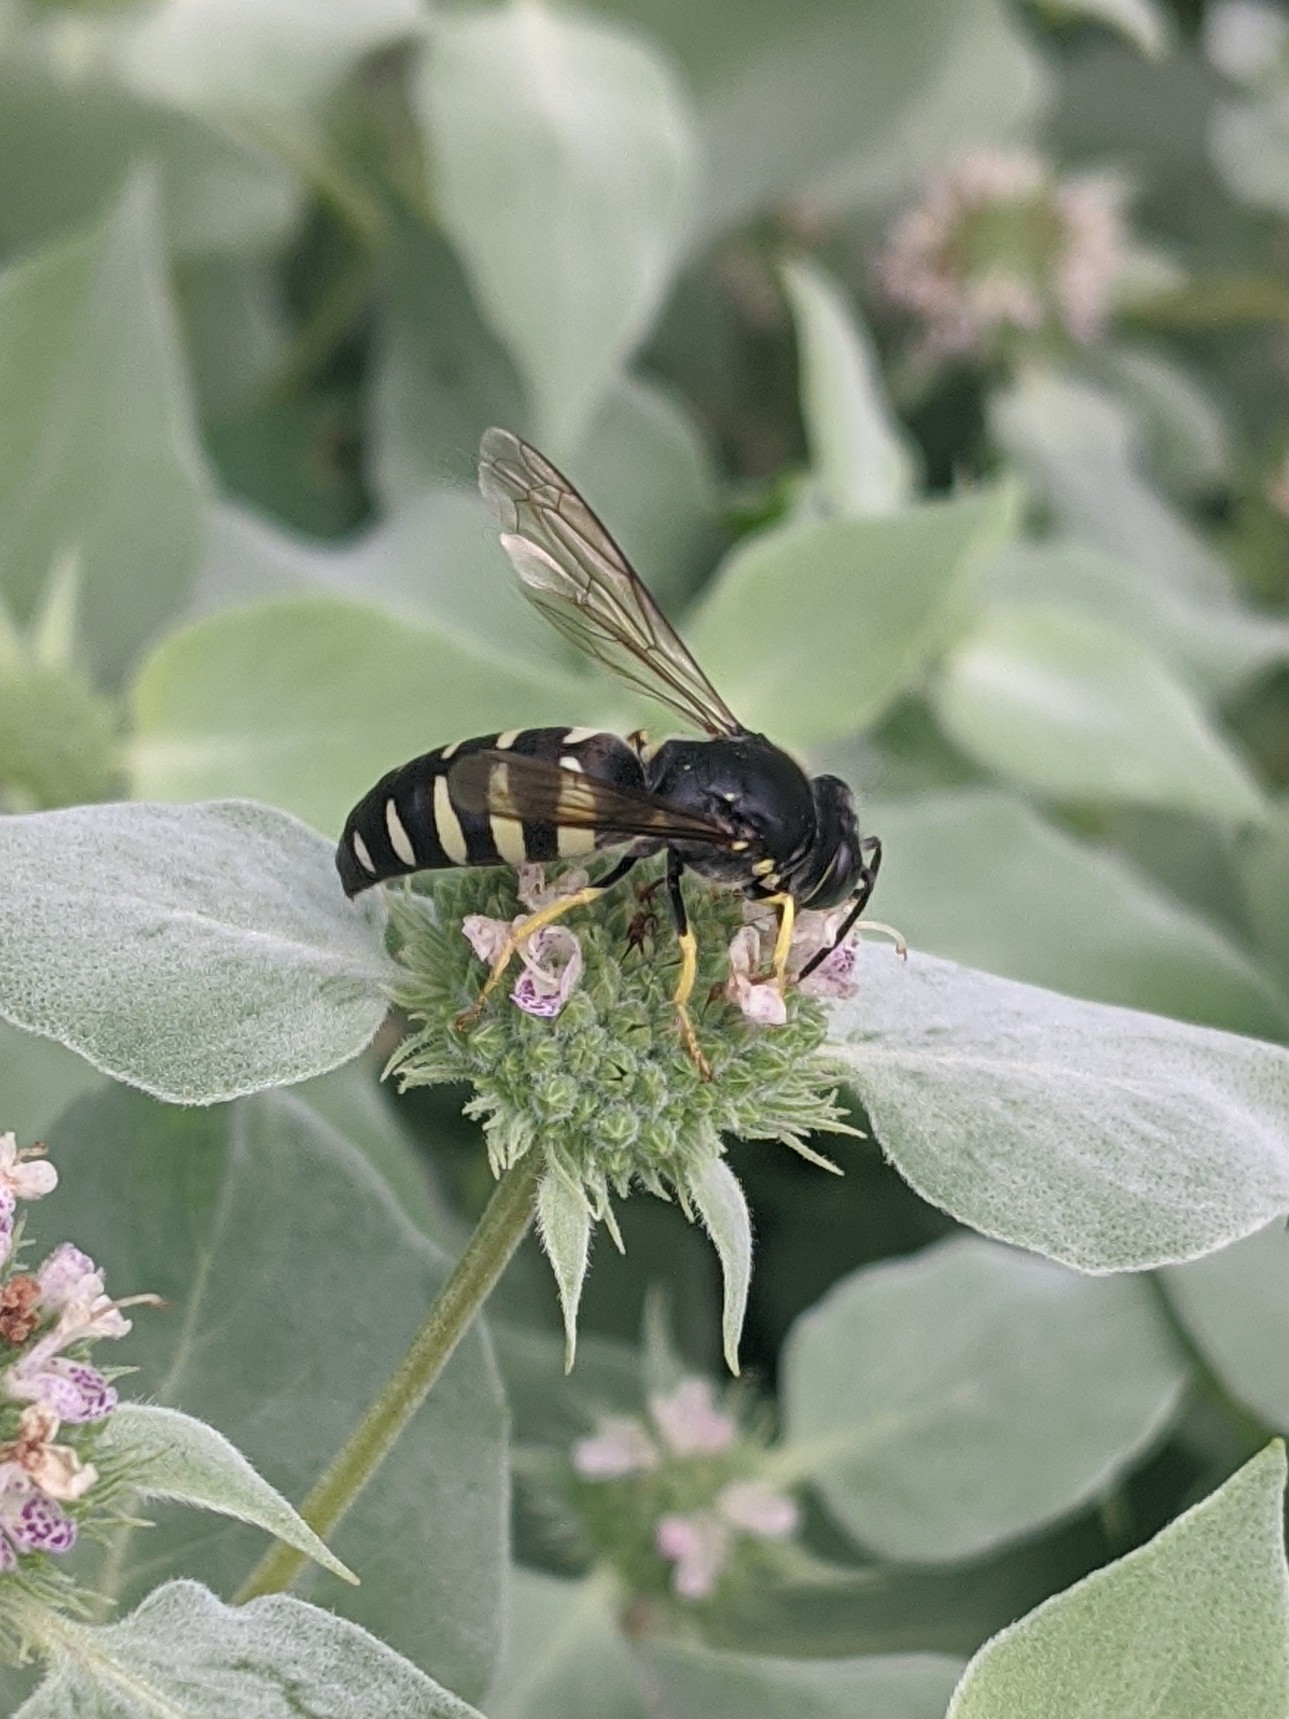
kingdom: Animalia
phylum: Arthropoda
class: Insecta
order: Hymenoptera
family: Crabronidae
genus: Bicyrtes
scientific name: Bicyrtes quadrifasciatus
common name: Four-banded stink bug hunter wasp
